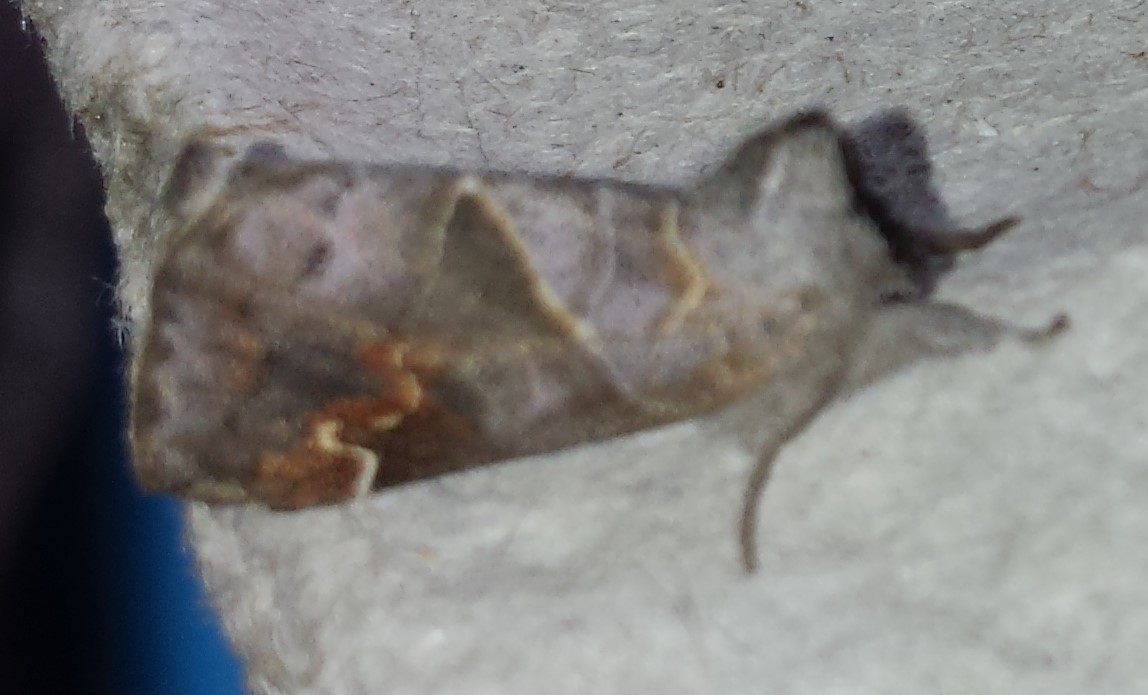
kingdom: Animalia
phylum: Arthropoda
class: Insecta
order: Lepidoptera
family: Notodontidae
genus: Clostera
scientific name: Clostera apicalis
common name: Apical prominent
